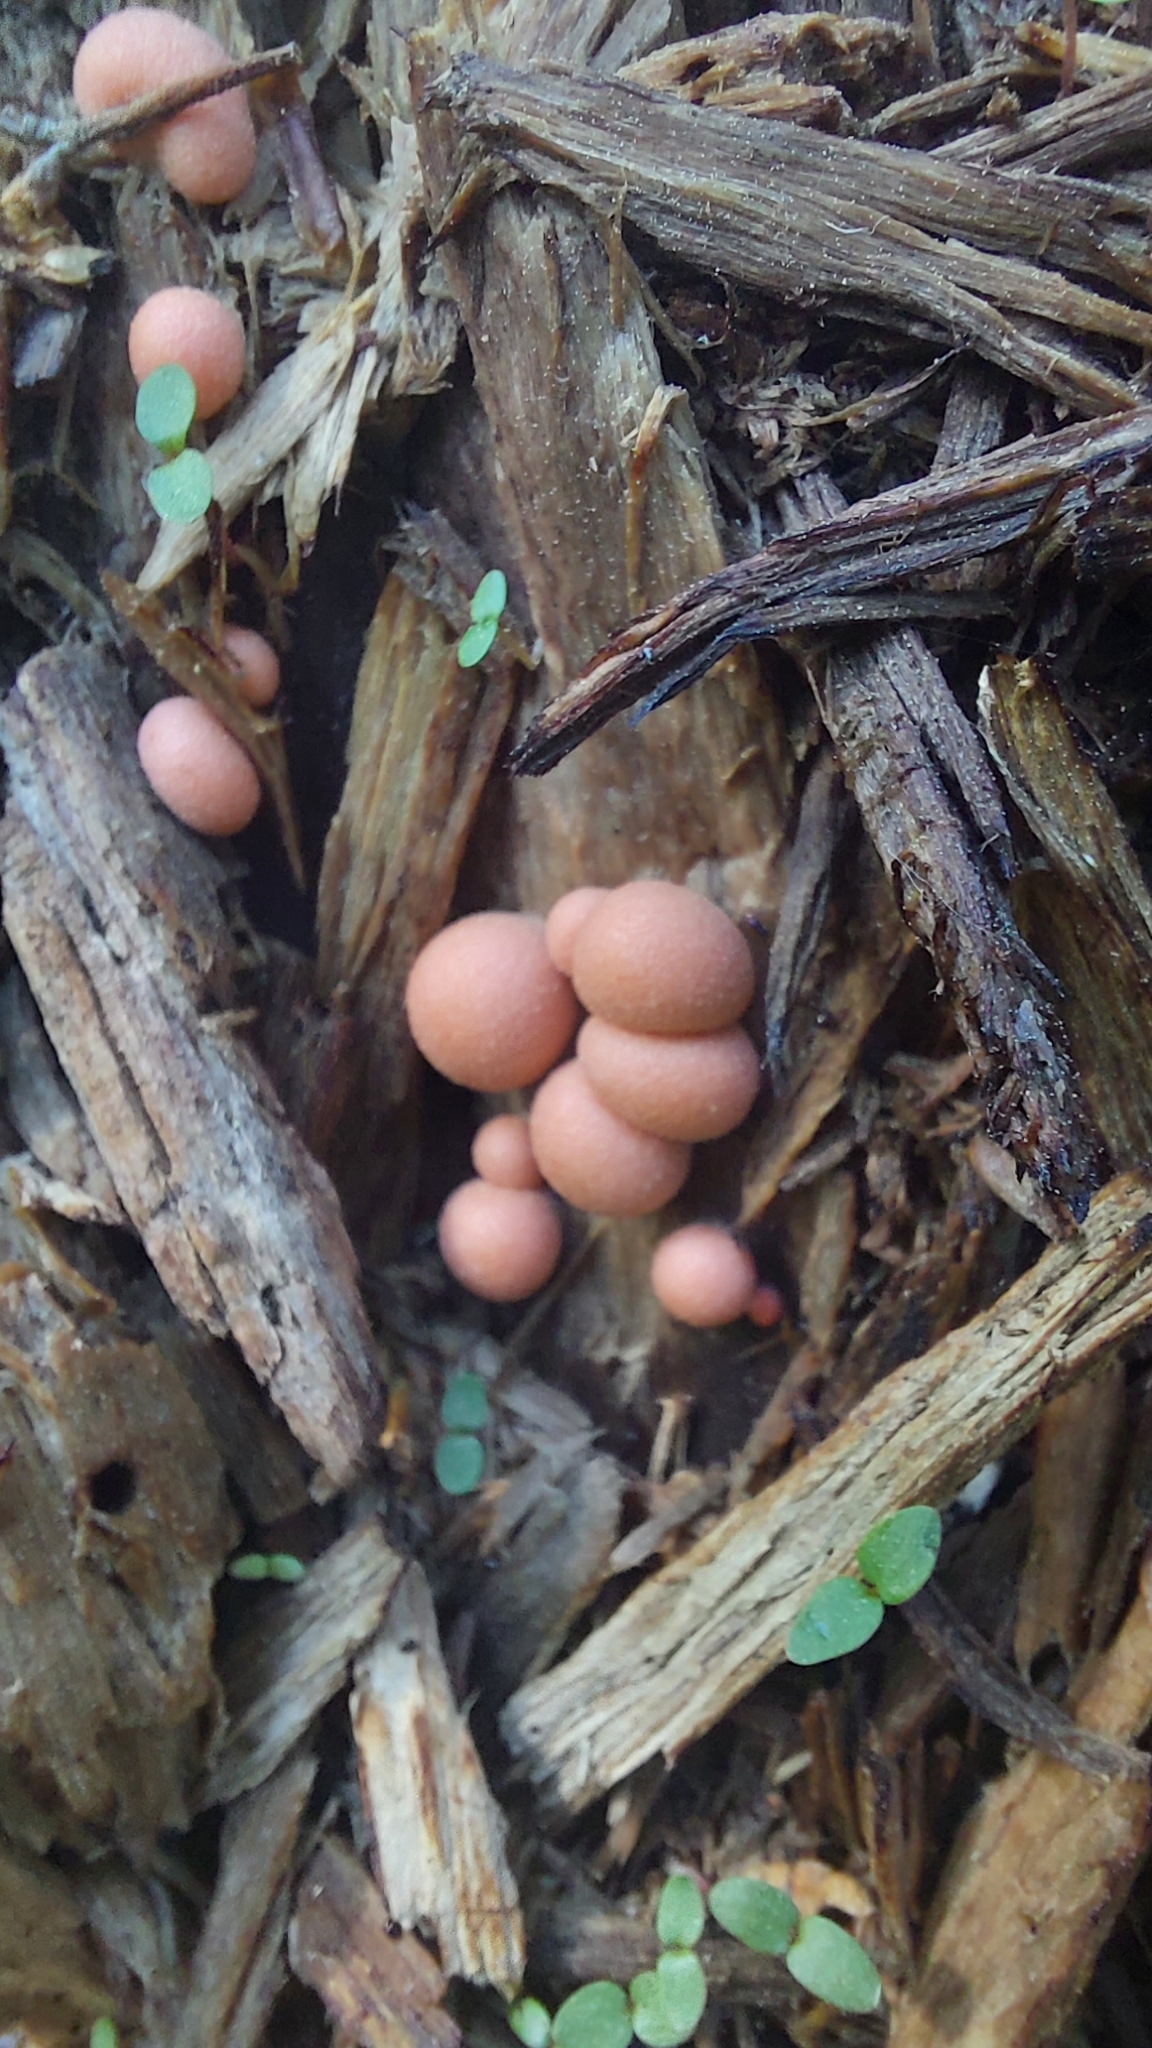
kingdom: Protozoa
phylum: Mycetozoa
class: Myxomycetes
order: Cribrariales
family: Tubiferaceae
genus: Lycogala
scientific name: Lycogala epidendrum
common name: Wolf's milk
